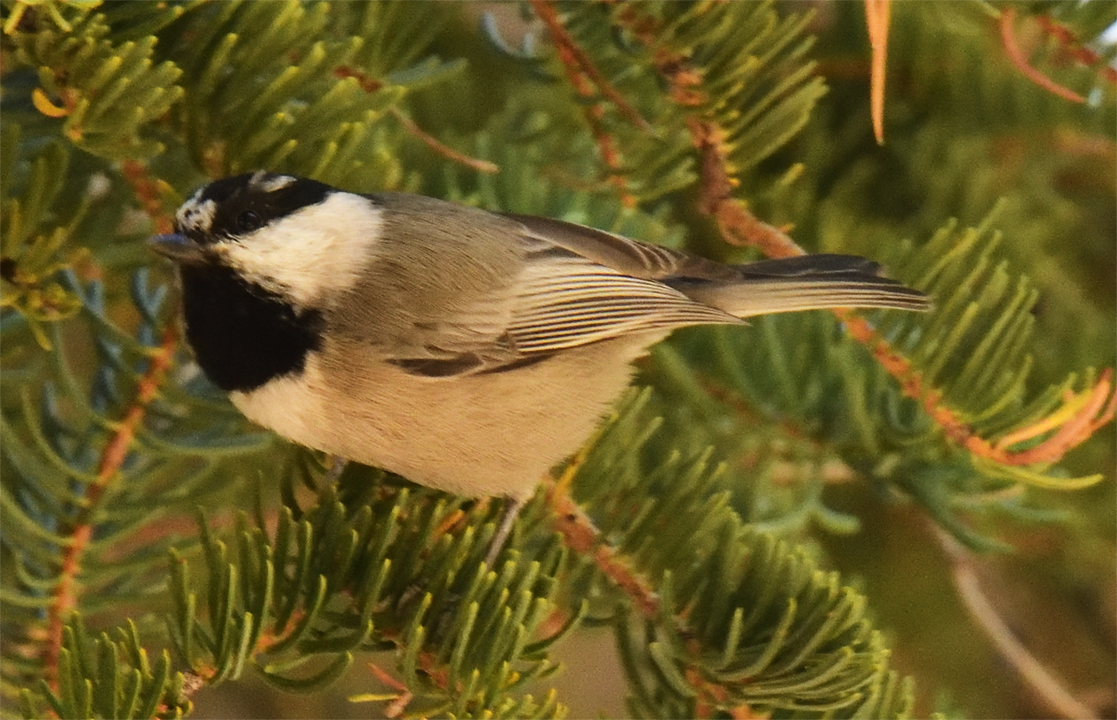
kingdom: Animalia
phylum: Chordata
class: Aves
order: Passeriformes
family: Paridae
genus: Poecile
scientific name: Poecile gambeli
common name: Mountain chickadee
